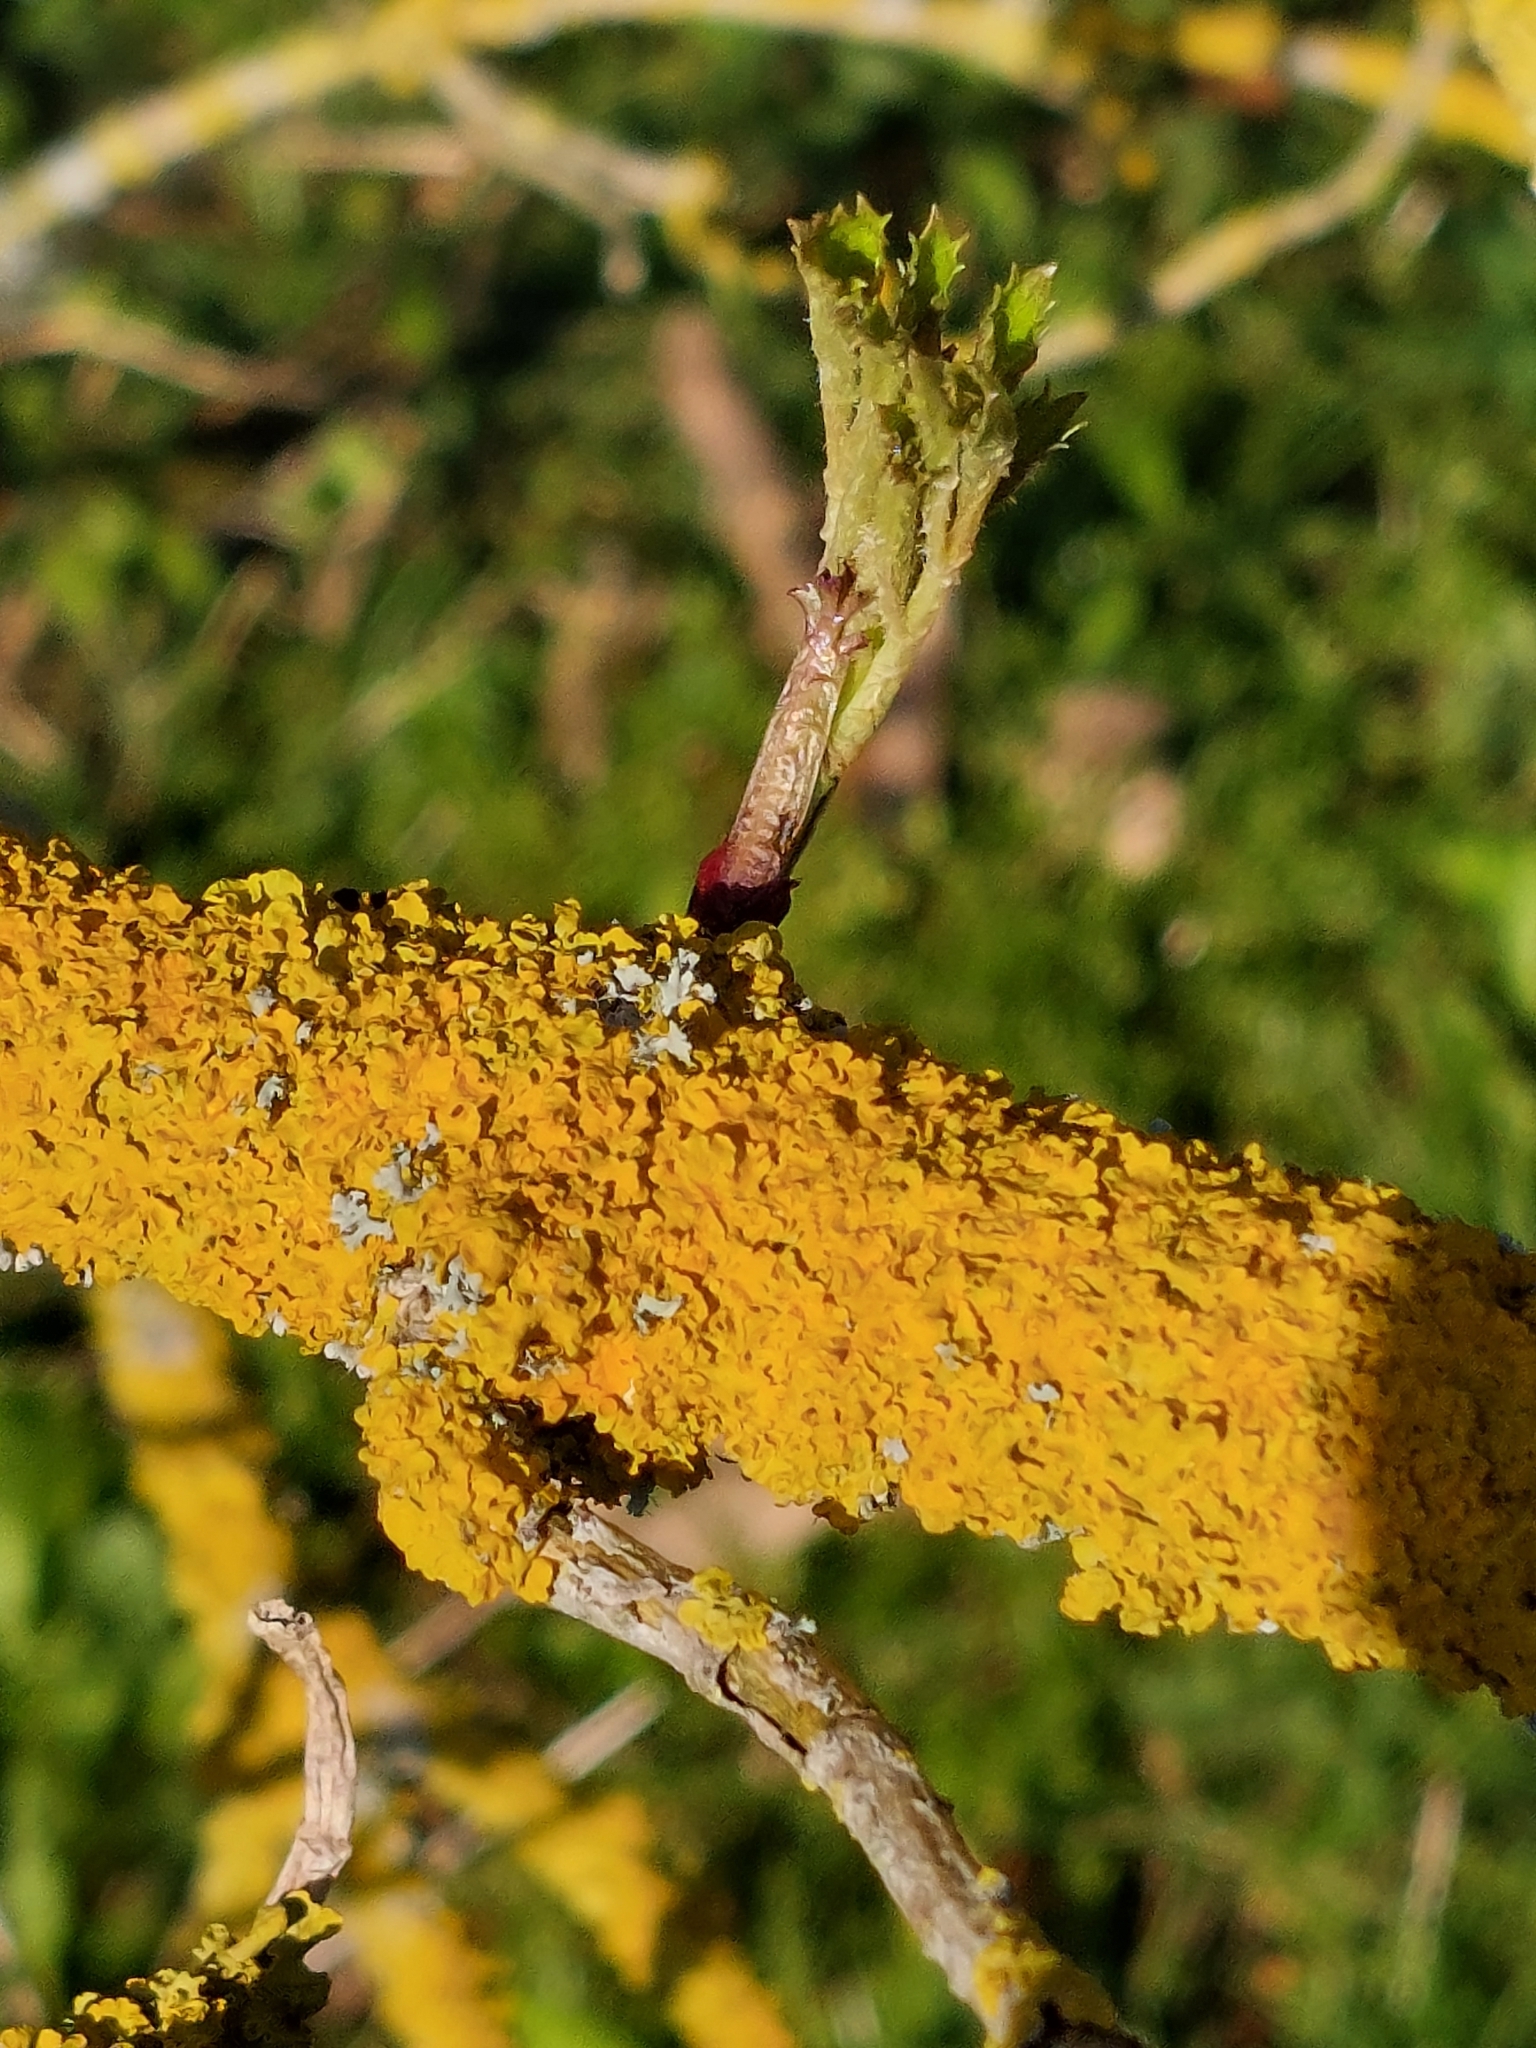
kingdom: Fungi
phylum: Ascomycota
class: Lecanoromycetes
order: Teloschistales
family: Teloschistaceae
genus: Xanthoria
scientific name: Xanthoria parietina
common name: Common orange lichen
